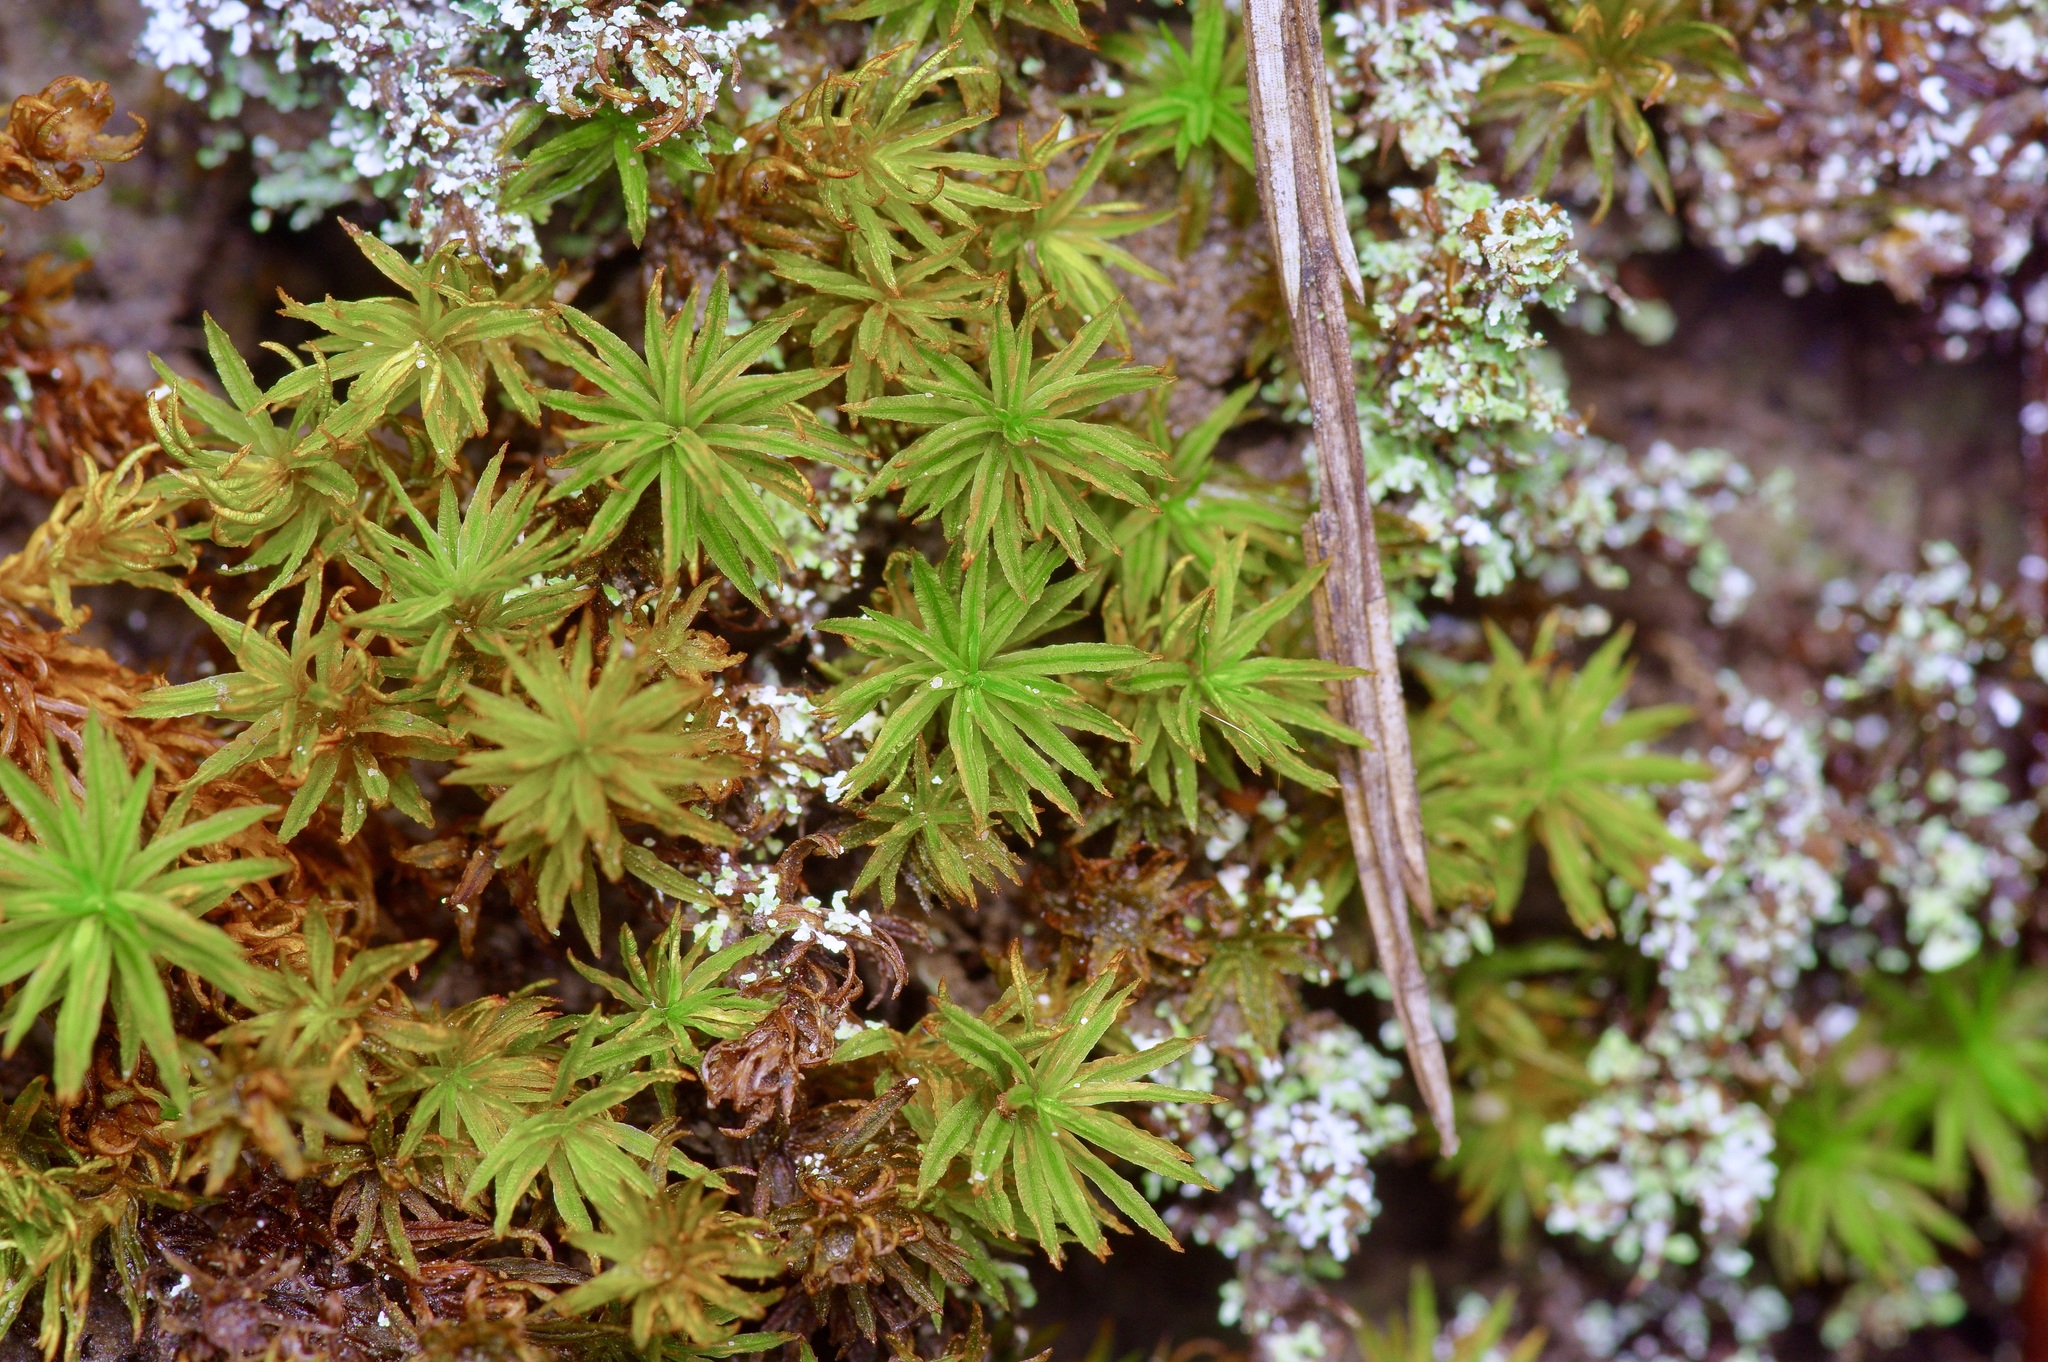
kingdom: Plantae
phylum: Bryophyta
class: Polytrichopsida
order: Polytrichales
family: Polytrichaceae
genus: Atrichum
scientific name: Atrichum angustatum
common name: Lesser smoothcap
